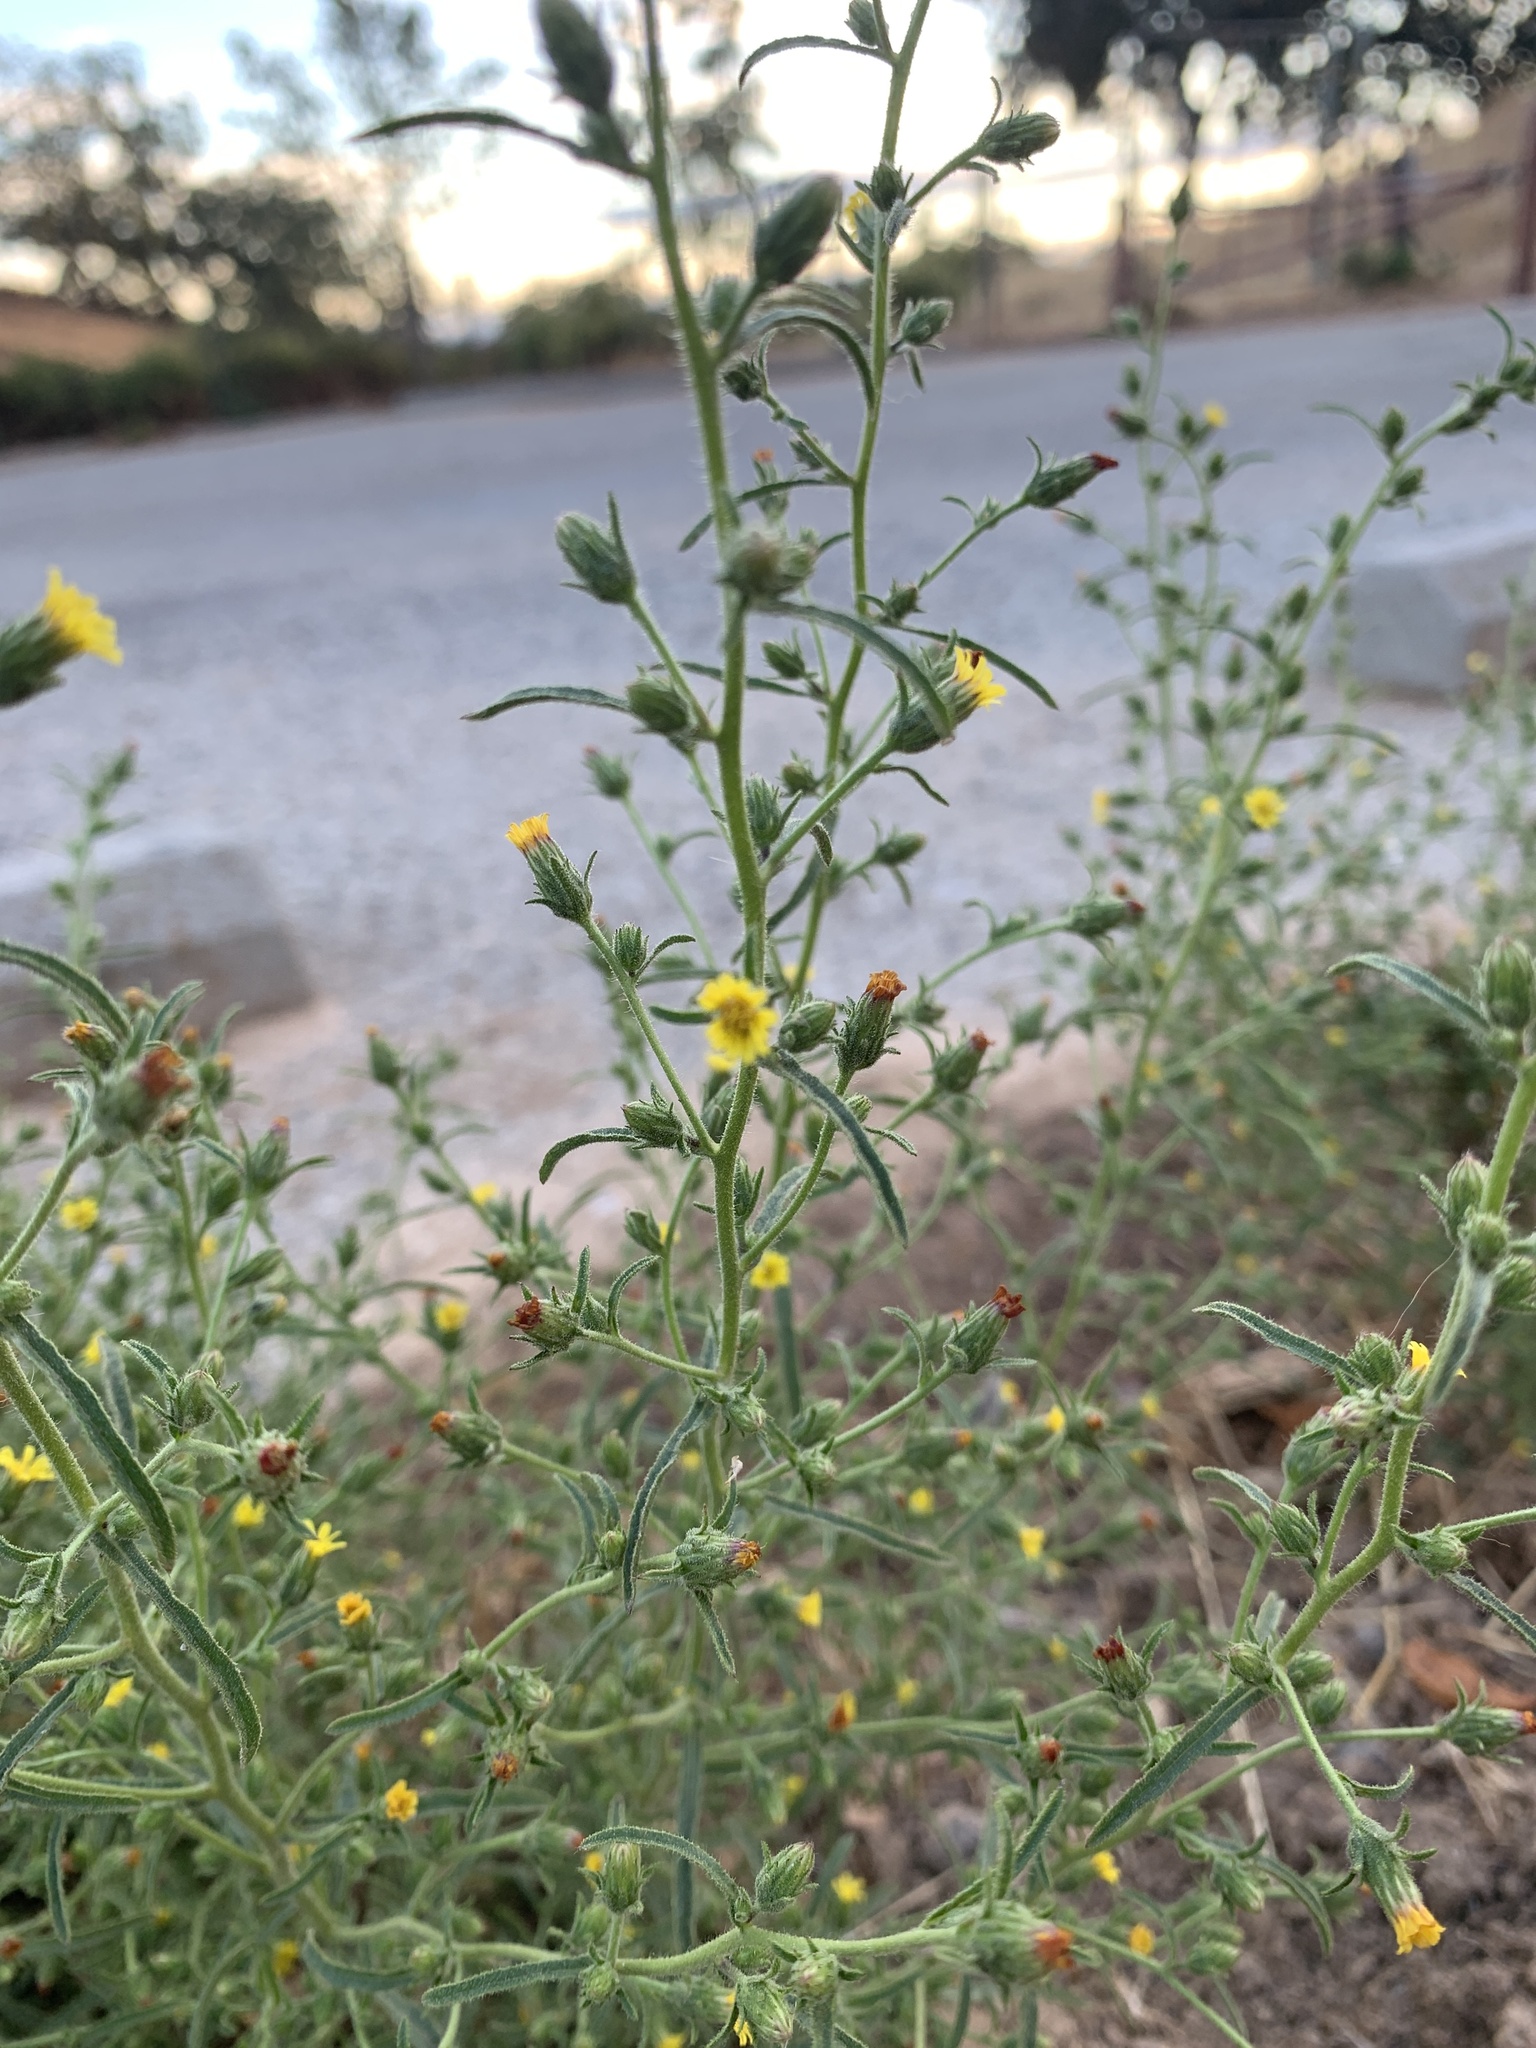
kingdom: Plantae
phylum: Tracheophyta
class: Magnoliopsida
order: Asterales
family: Asteraceae
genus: Dittrichia
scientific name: Dittrichia graveolens
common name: Stinking fleabane
